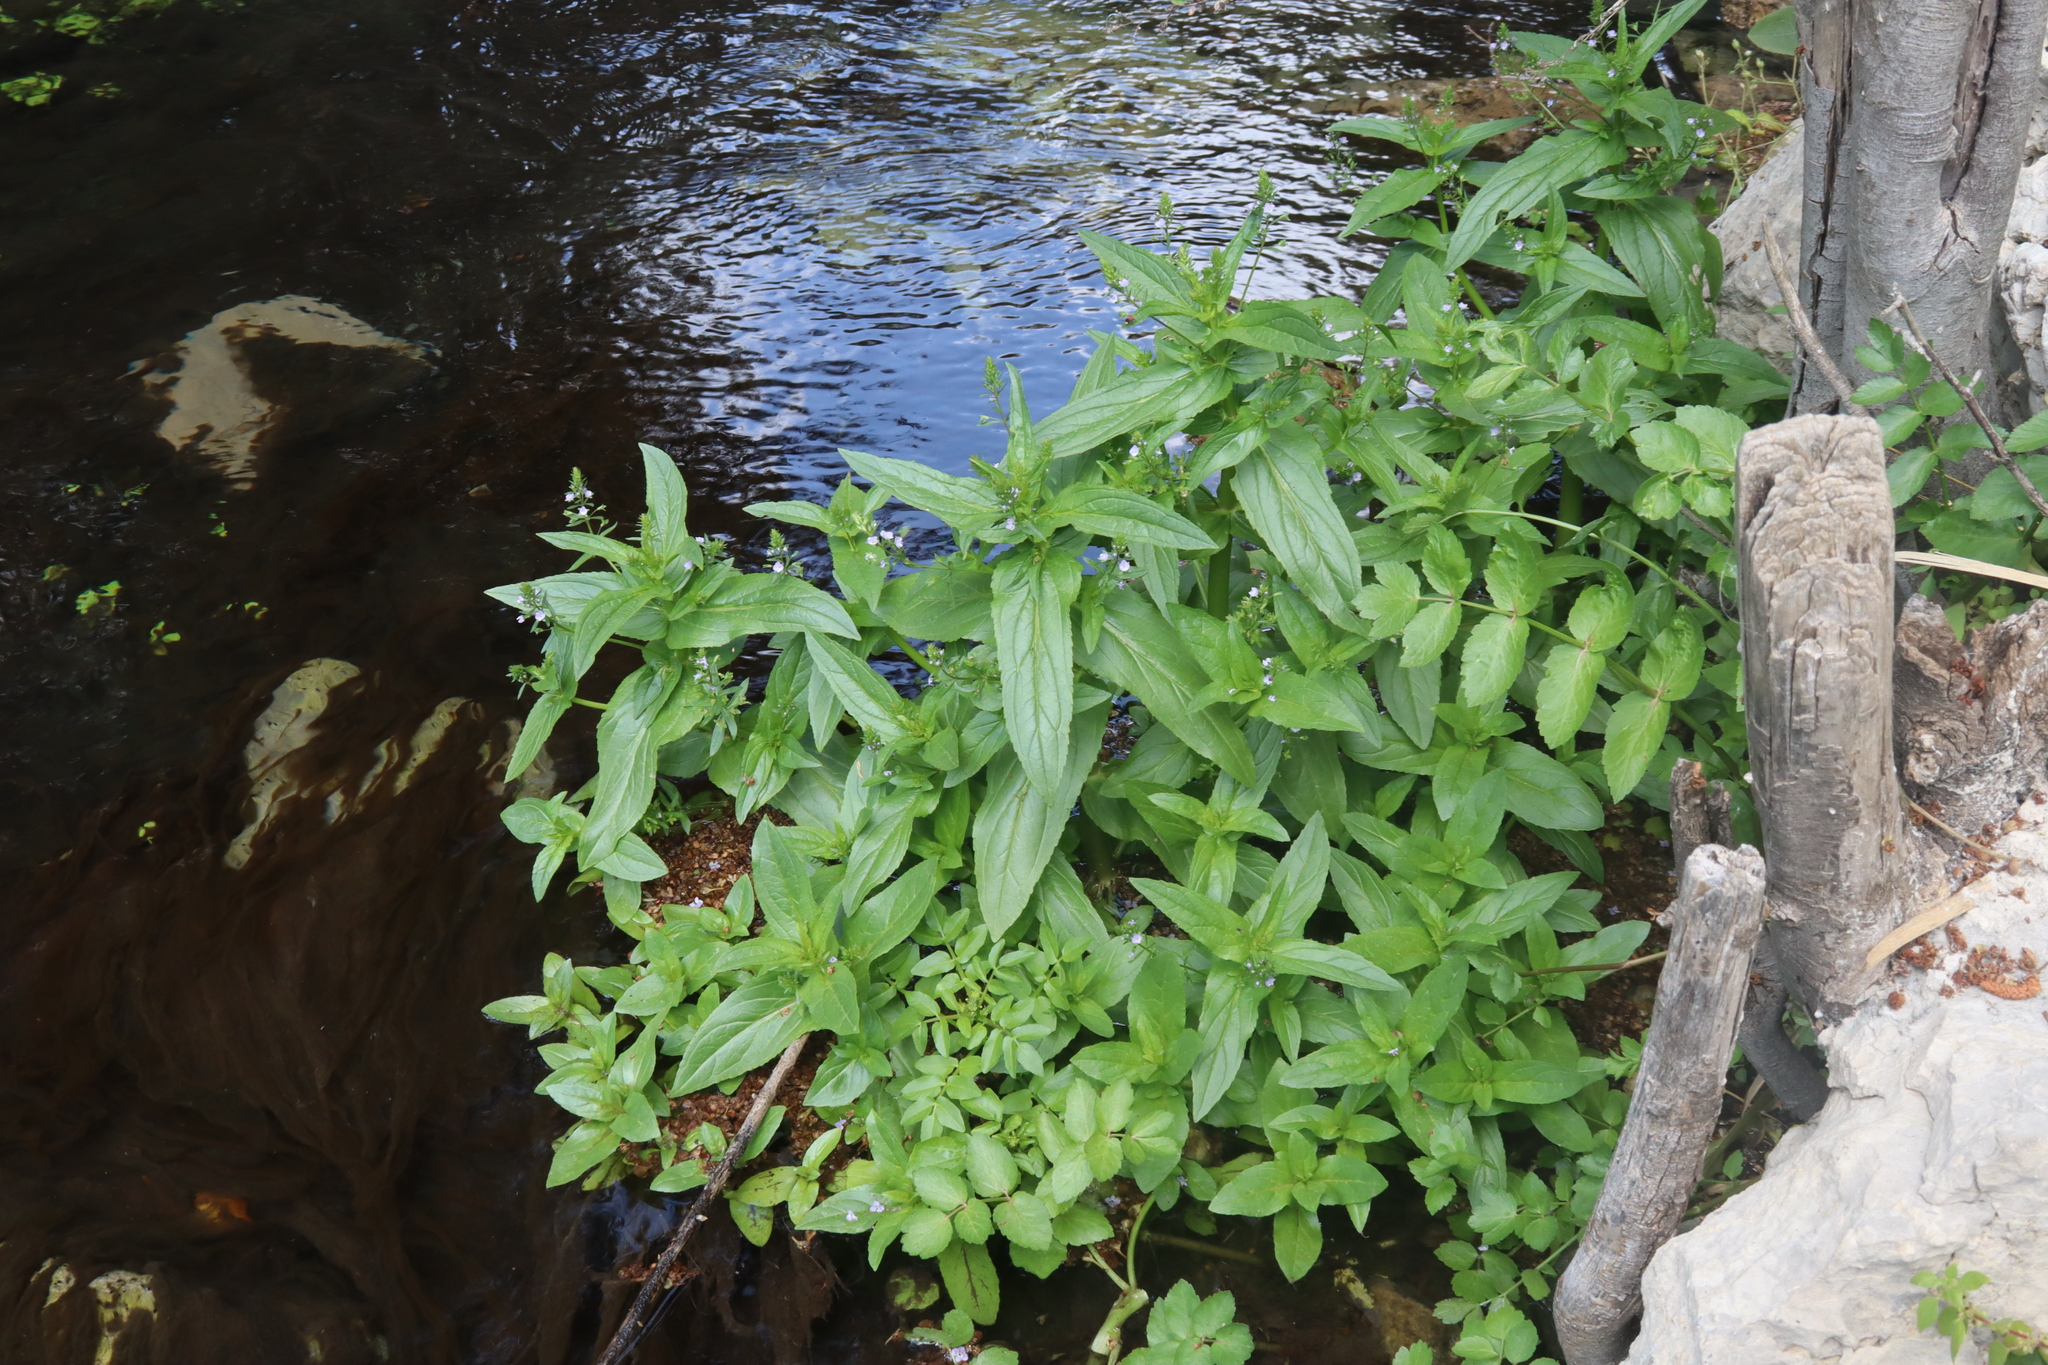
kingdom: Plantae
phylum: Tracheophyta
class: Magnoliopsida
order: Lamiales
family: Plantaginaceae
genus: Veronica
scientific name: Veronica anagallis-aquatica
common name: Water speedwell
